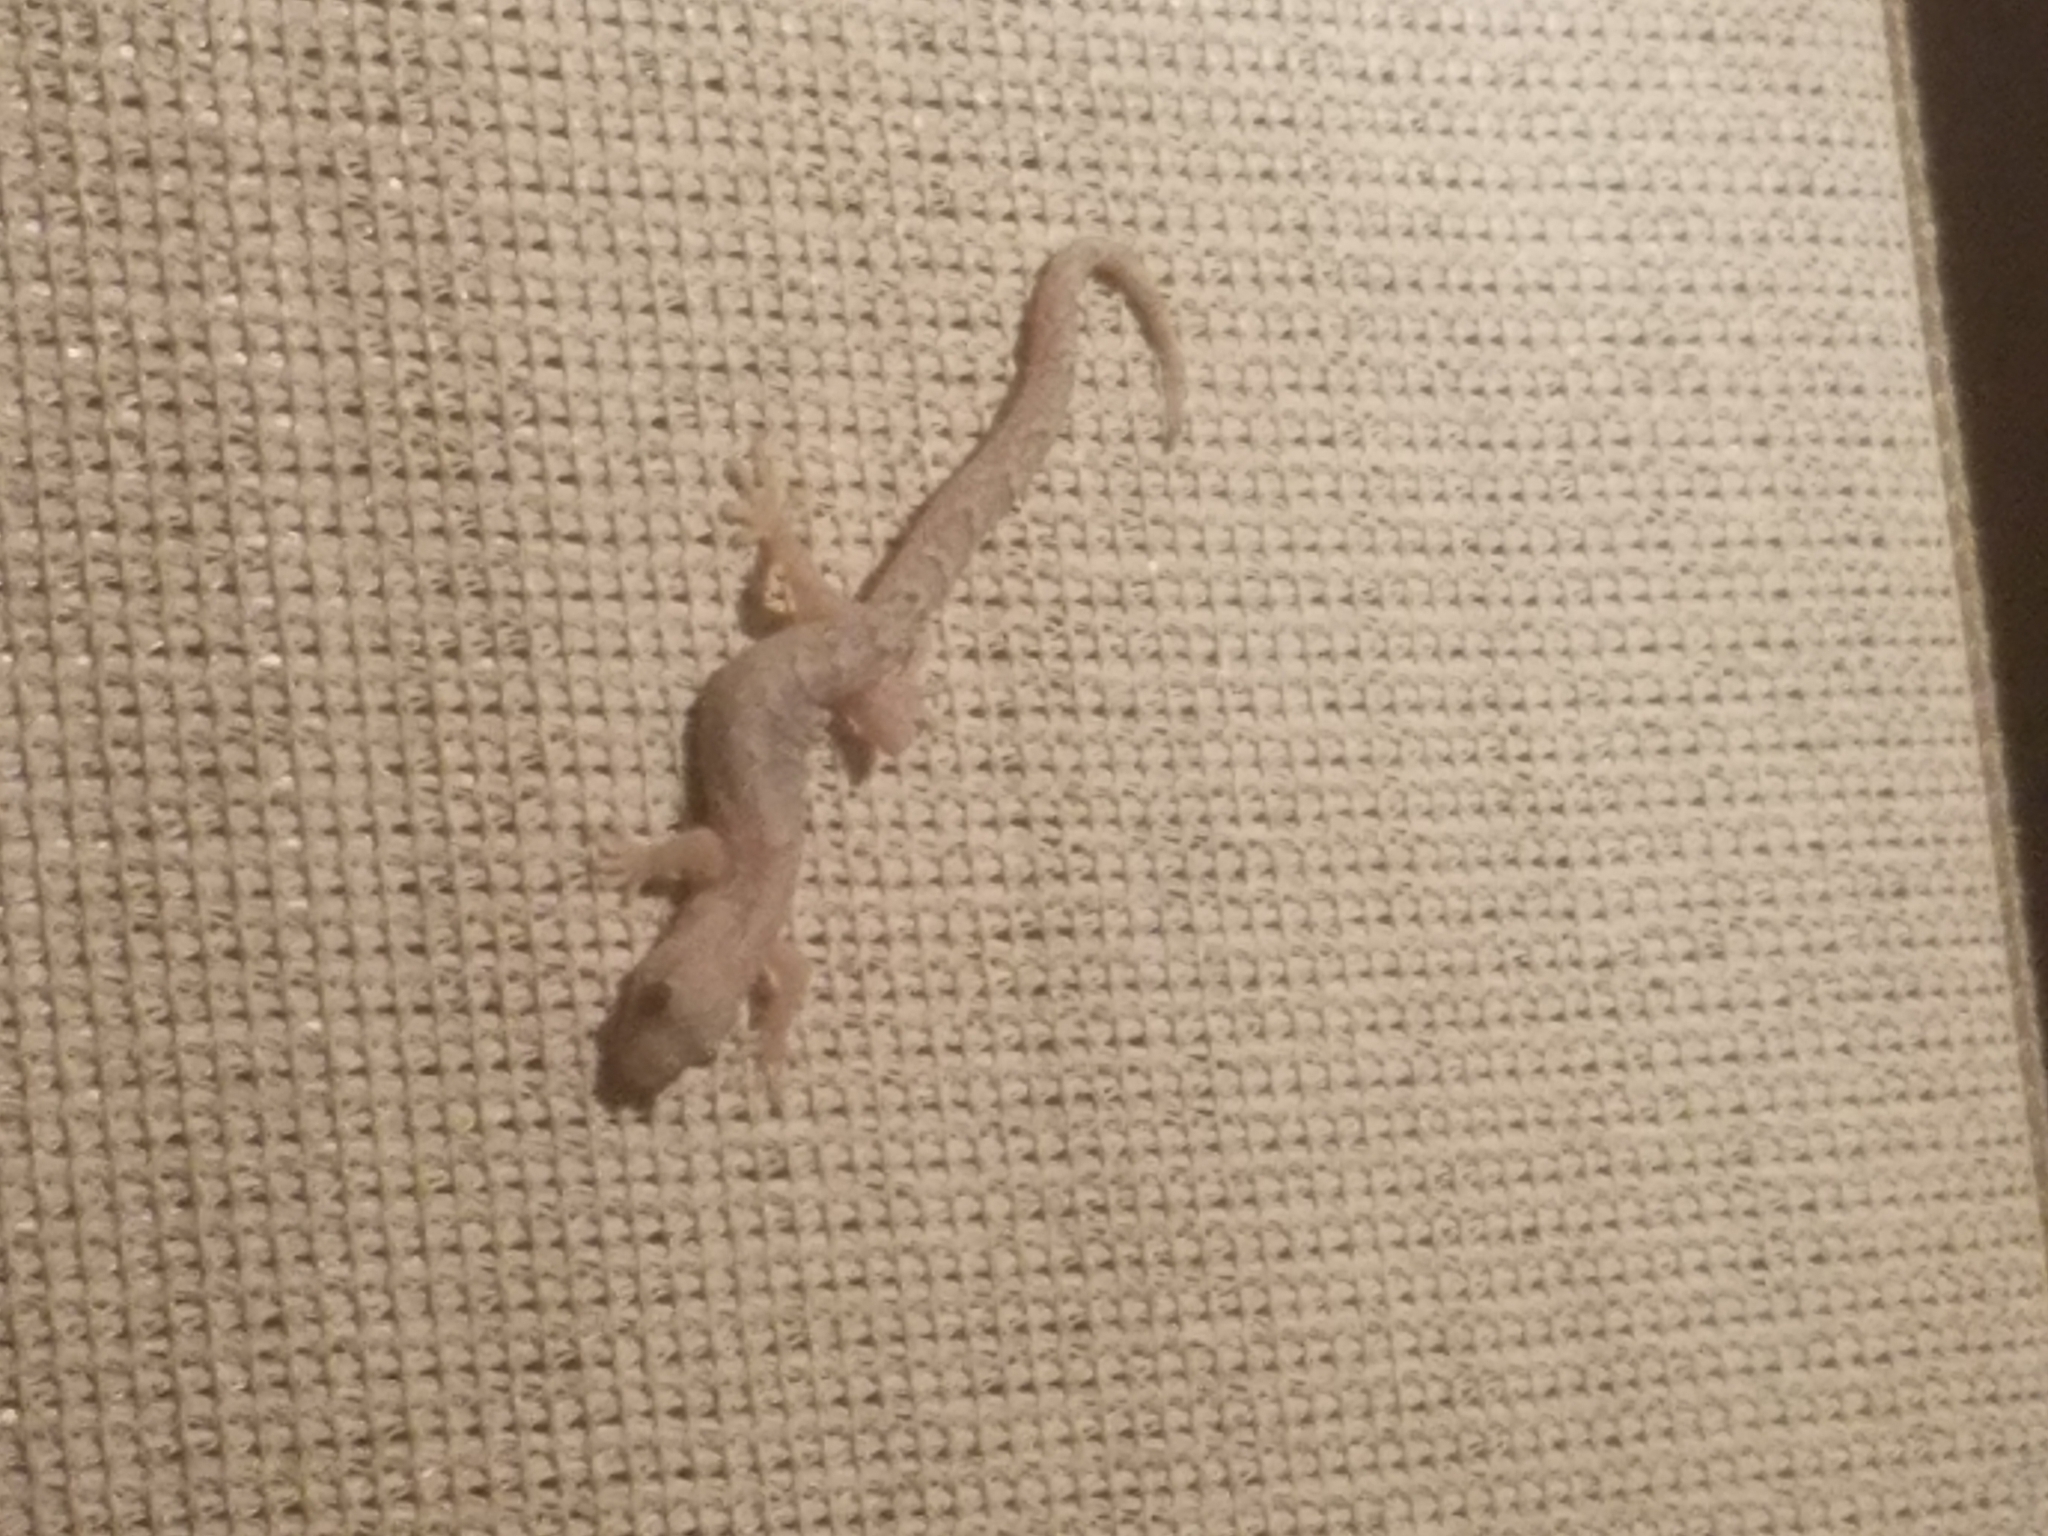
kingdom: Animalia
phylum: Chordata
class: Squamata
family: Gekkonidae
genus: Christinus
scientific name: Christinus marmoratus
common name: Marbled gecko
